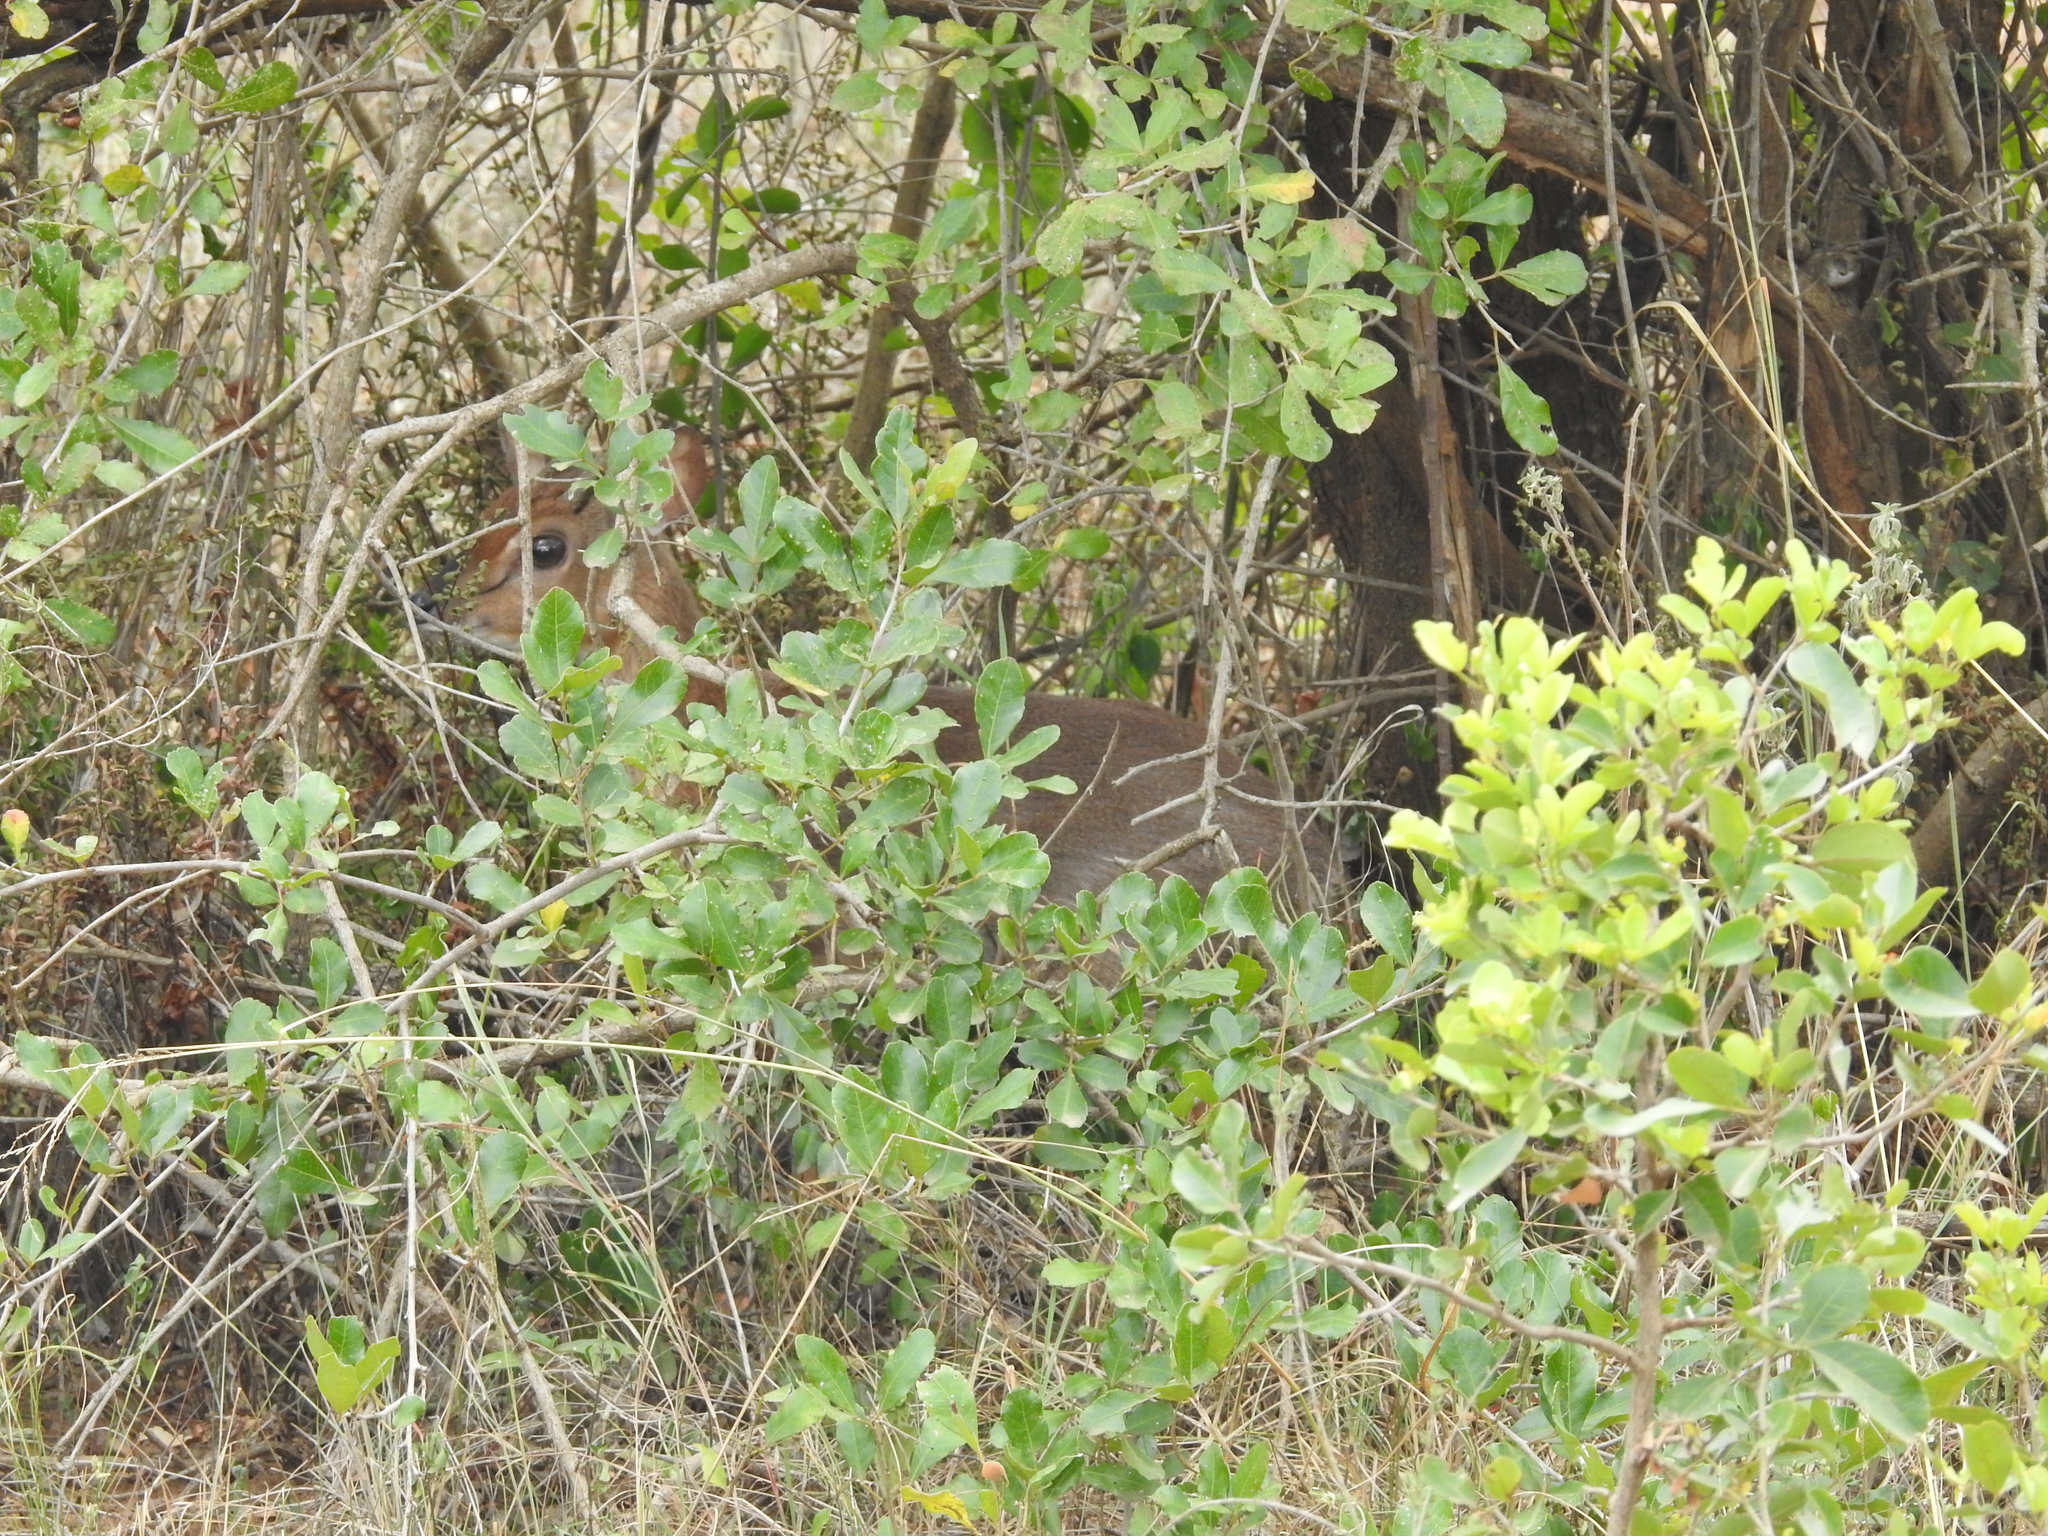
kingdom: Animalia
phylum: Chordata
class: Mammalia
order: Artiodactyla
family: Bovidae
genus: Neotragus
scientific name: Neotragus moschatus
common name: Suni
